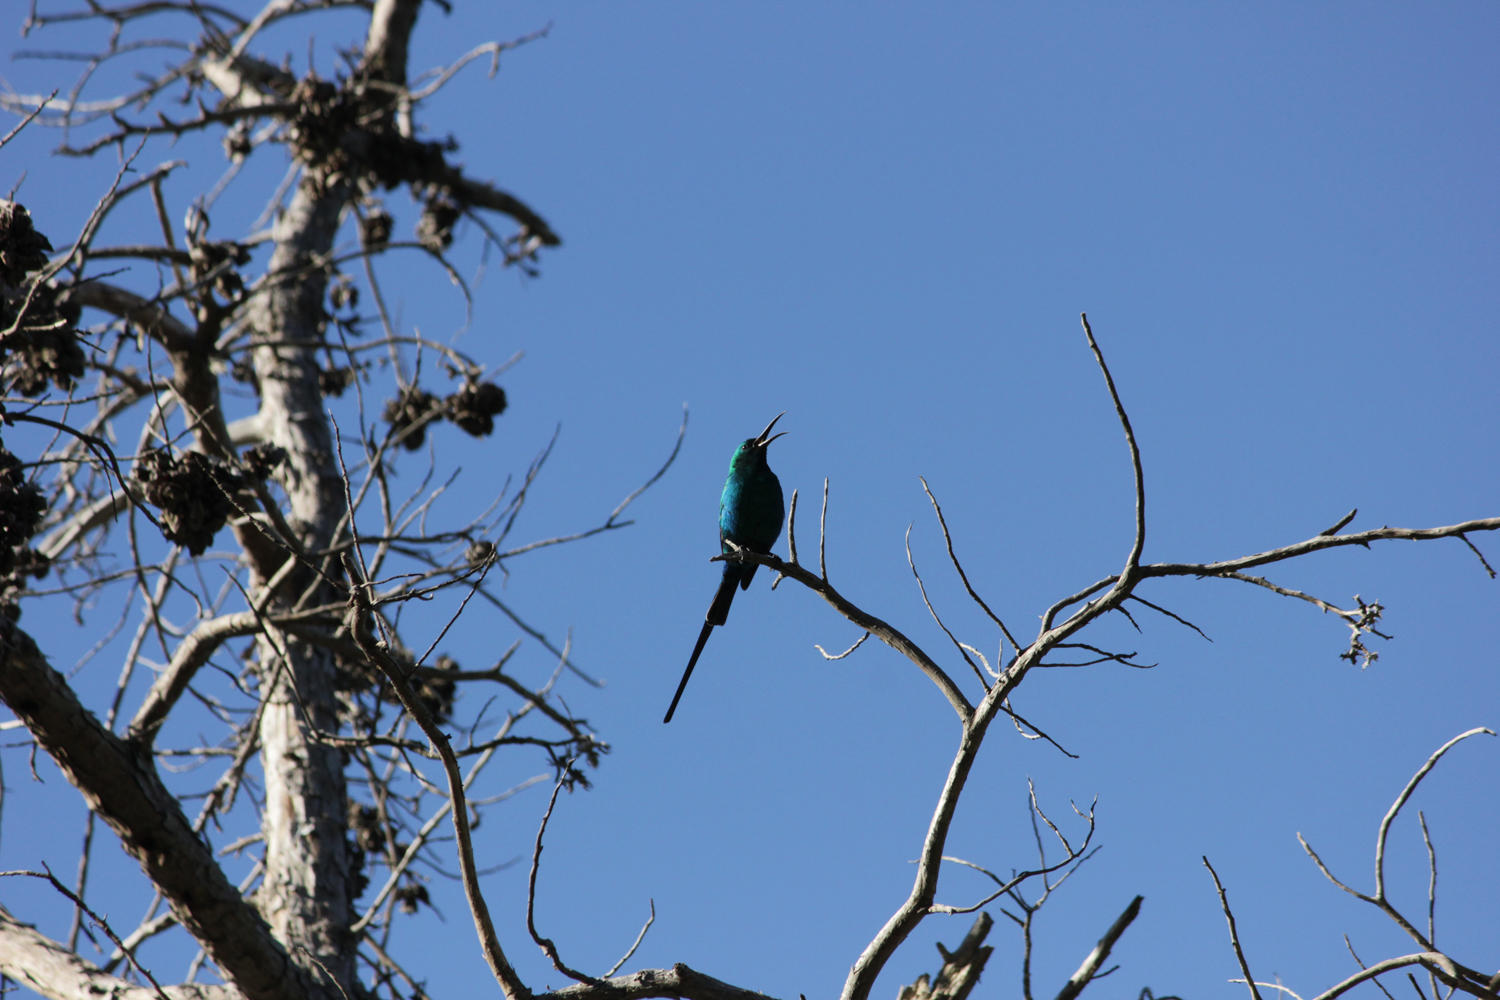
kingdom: Animalia
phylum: Chordata
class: Aves
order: Passeriformes
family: Nectariniidae
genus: Nectarinia
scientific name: Nectarinia famosa
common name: Malachite sunbird
